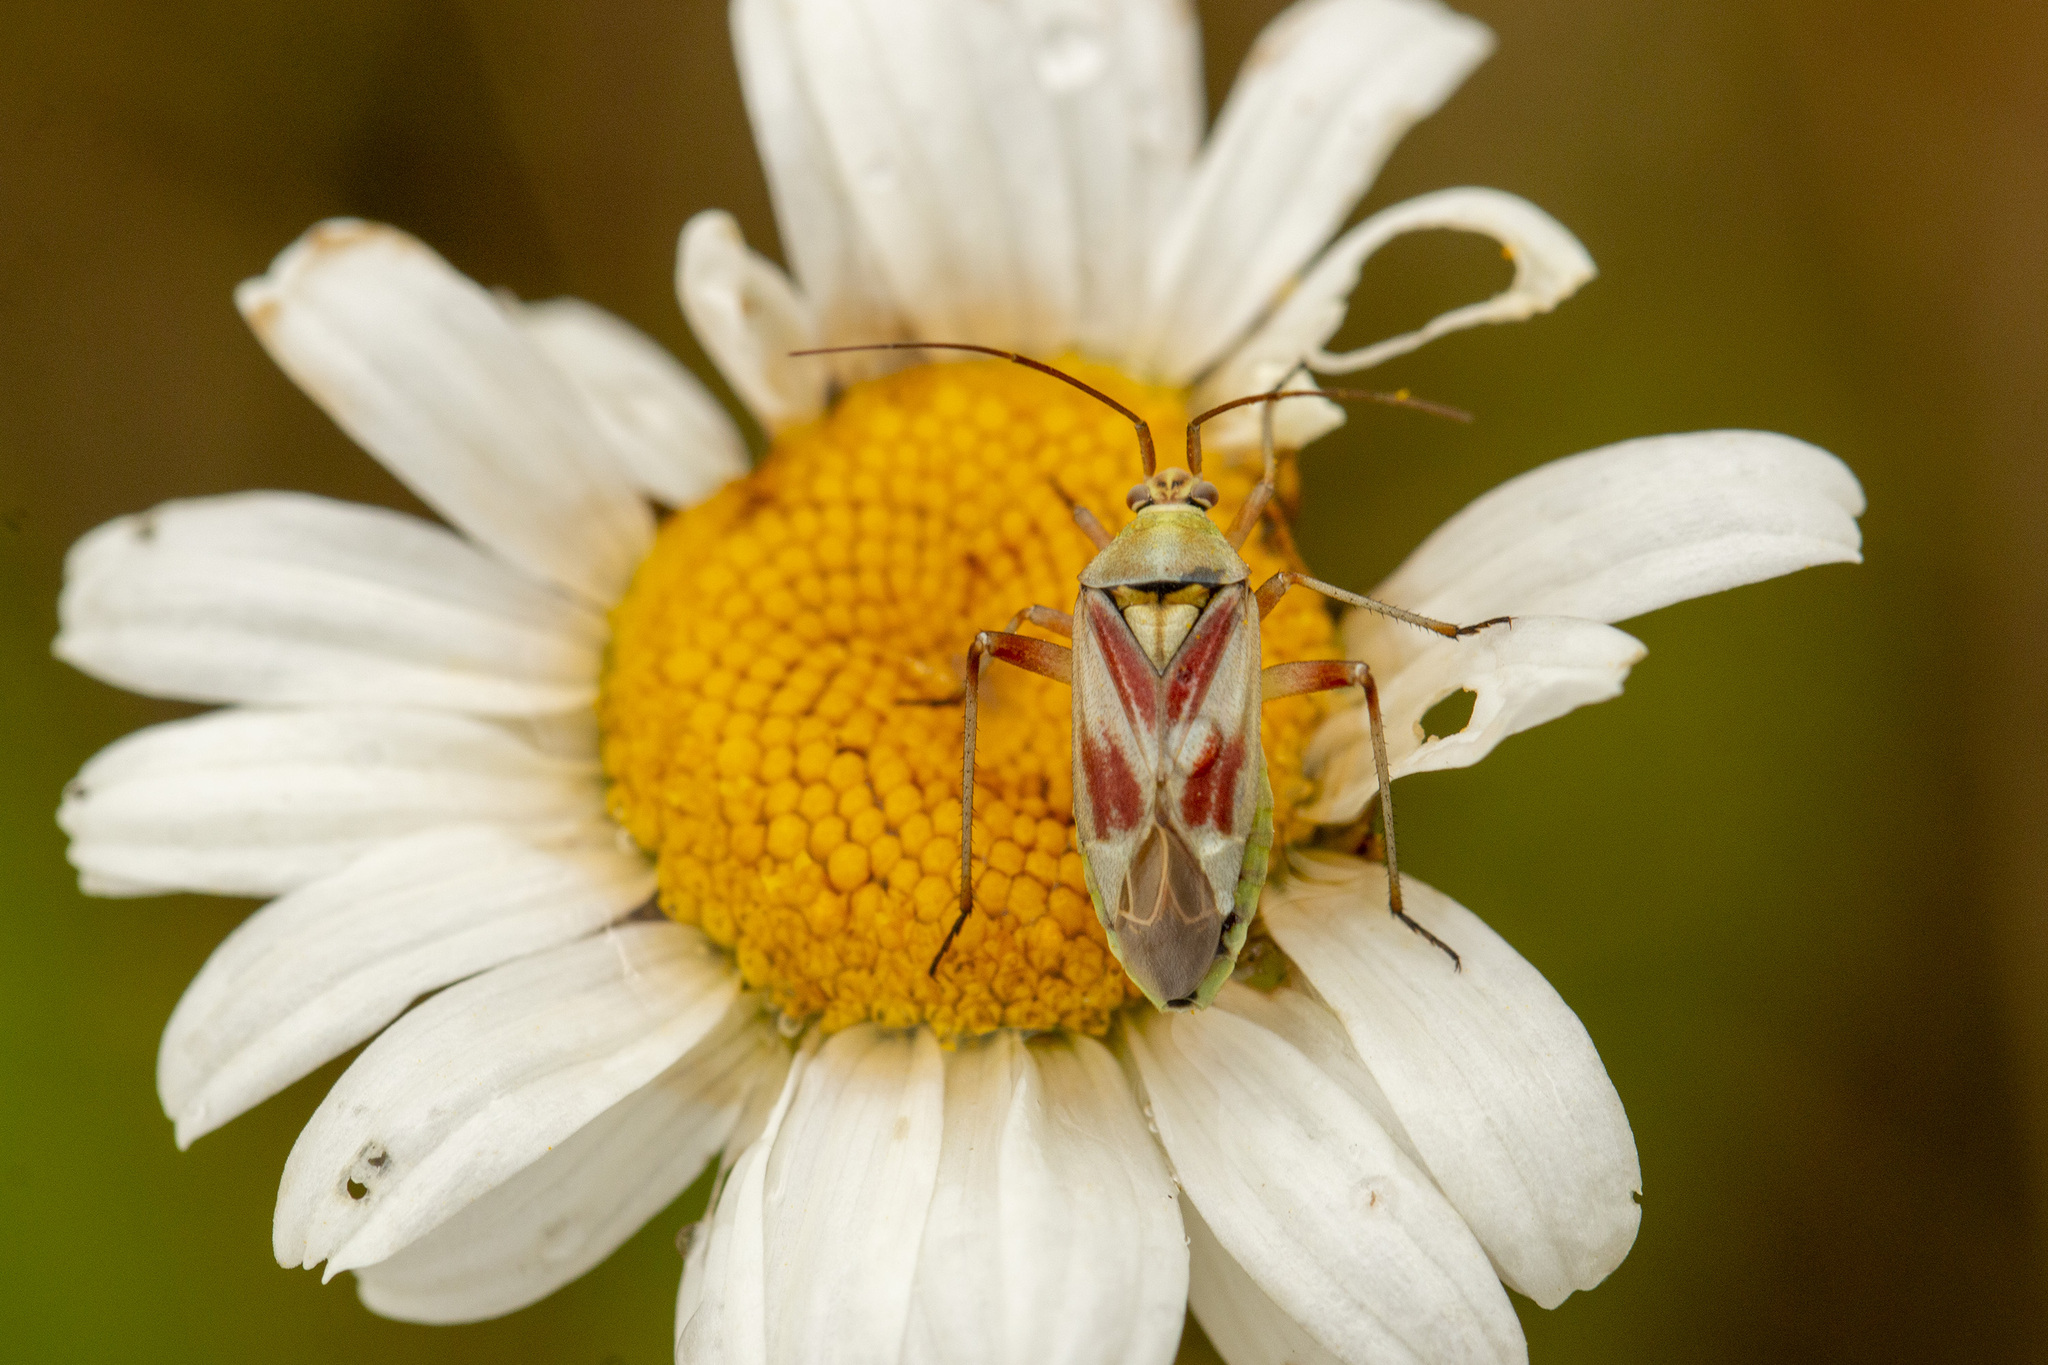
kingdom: Animalia
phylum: Arthropoda
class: Insecta
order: Hemiptera
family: Miridae
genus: Calocoris
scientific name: Calocoris roseomaculatus
